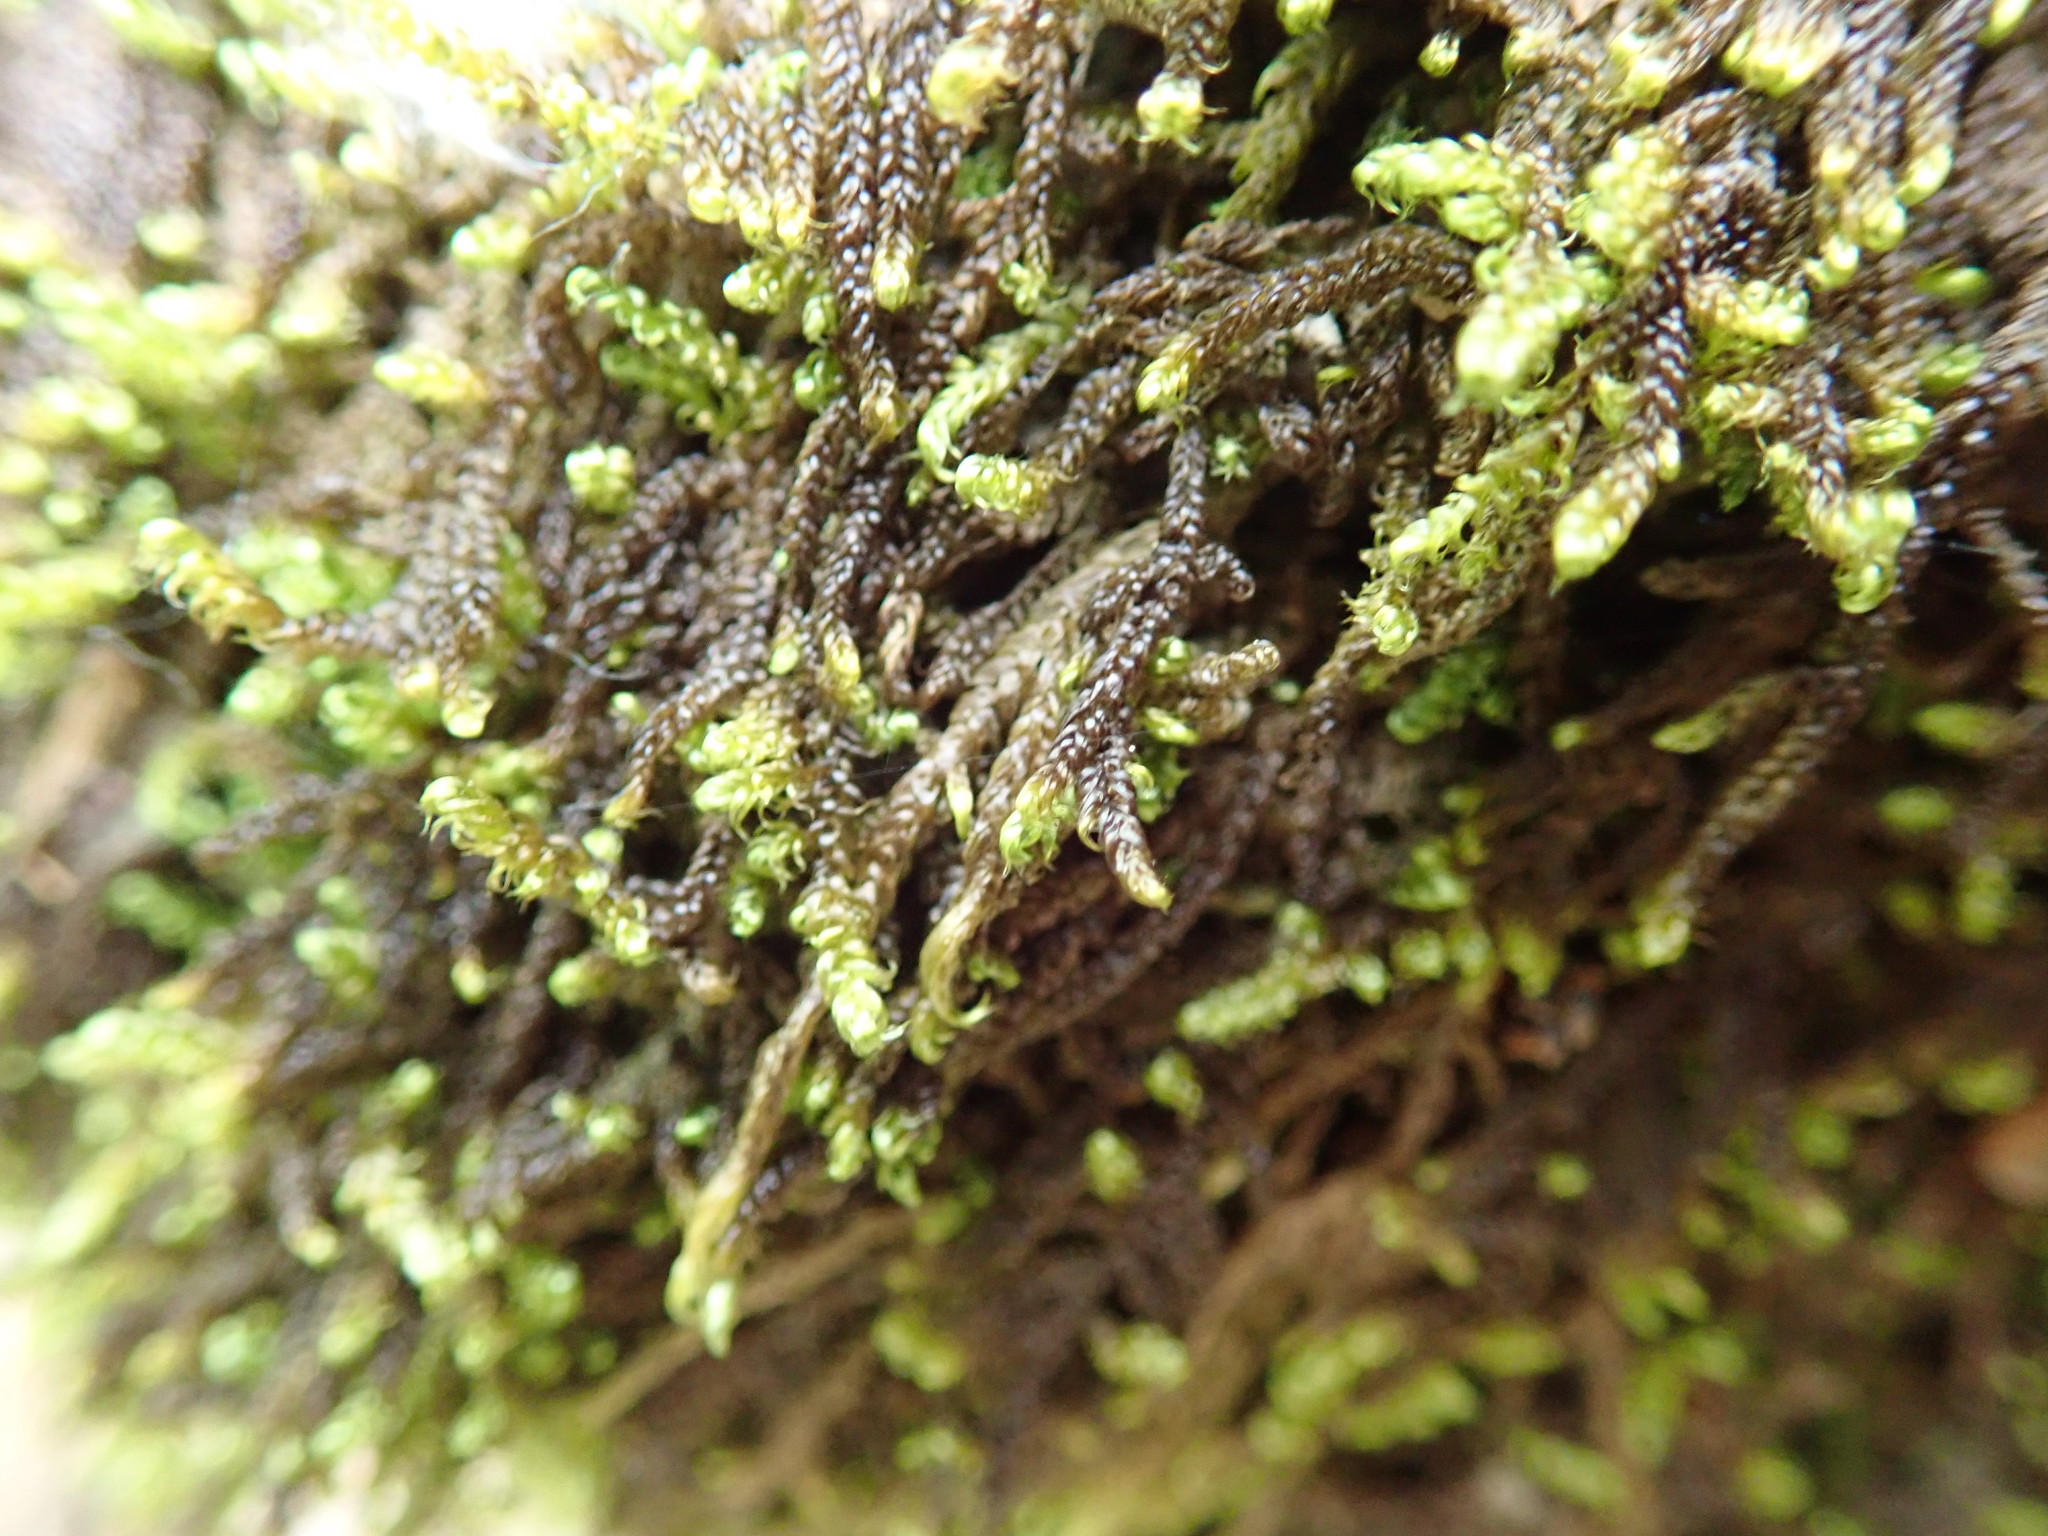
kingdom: Plantae
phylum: Bryophyta
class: Bryopsida
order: Hypnales
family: Hypnaceae
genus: Hypnum
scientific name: Hypnum cupressiforme
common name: Cypress-leaved plait-moss
